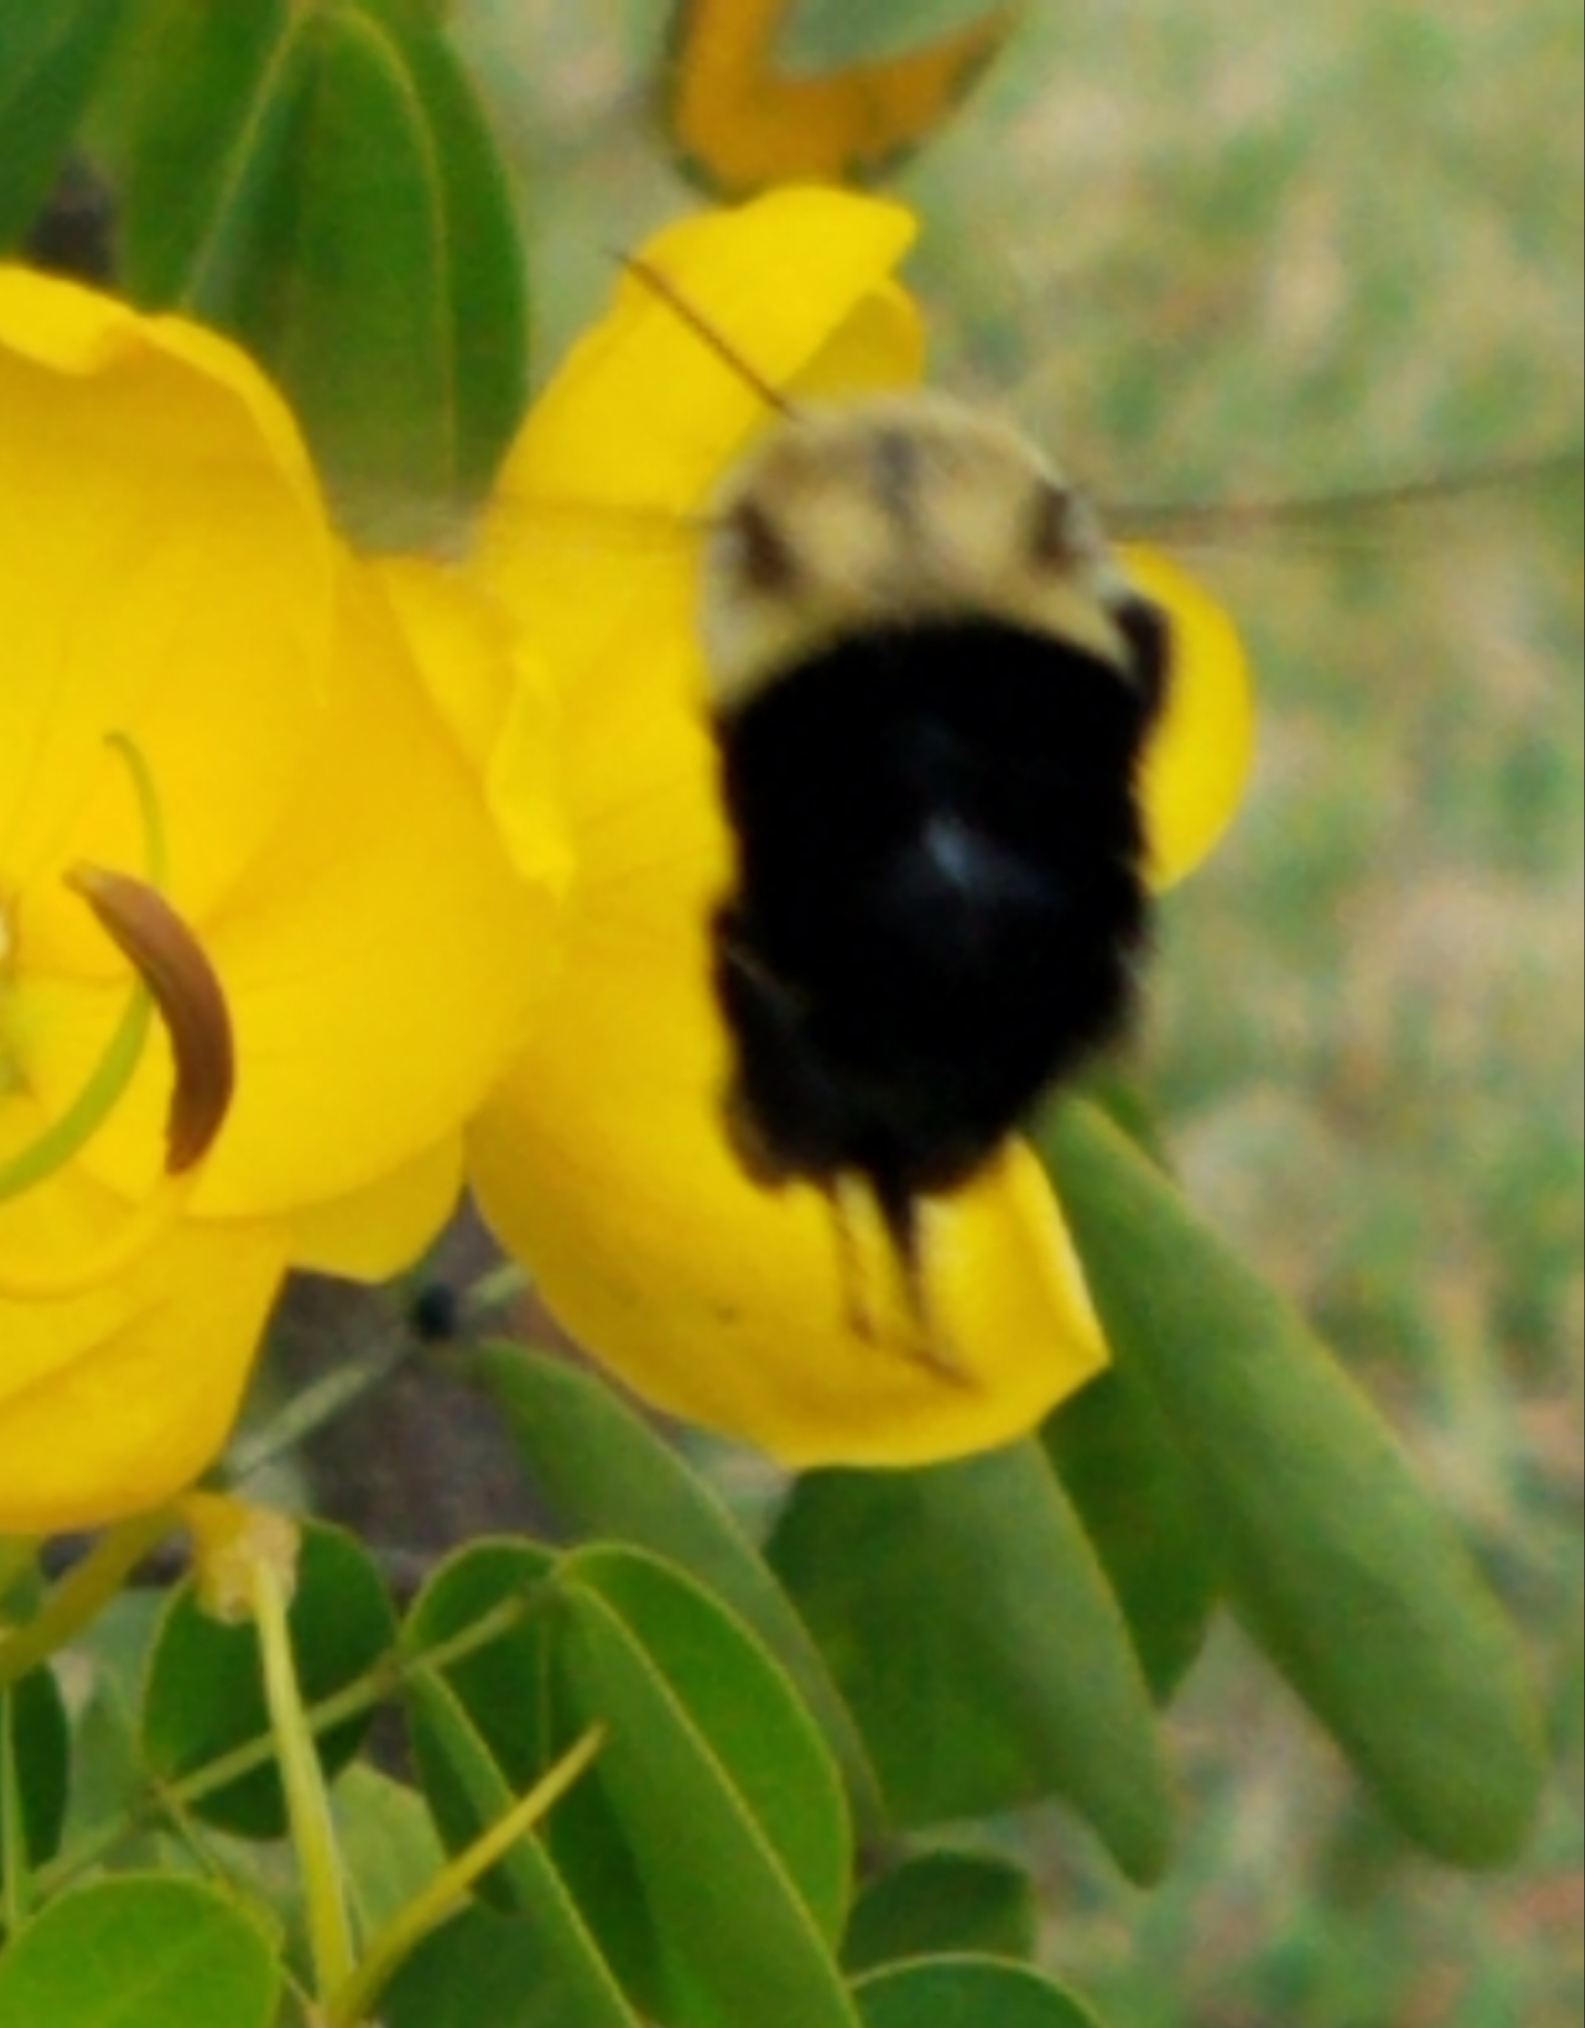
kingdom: Animalia
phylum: Arthropoda
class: Insecta
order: Hymenoptera
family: Apidae
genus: Bombus
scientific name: Bombus impatiens
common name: Common eastern bumble bee
